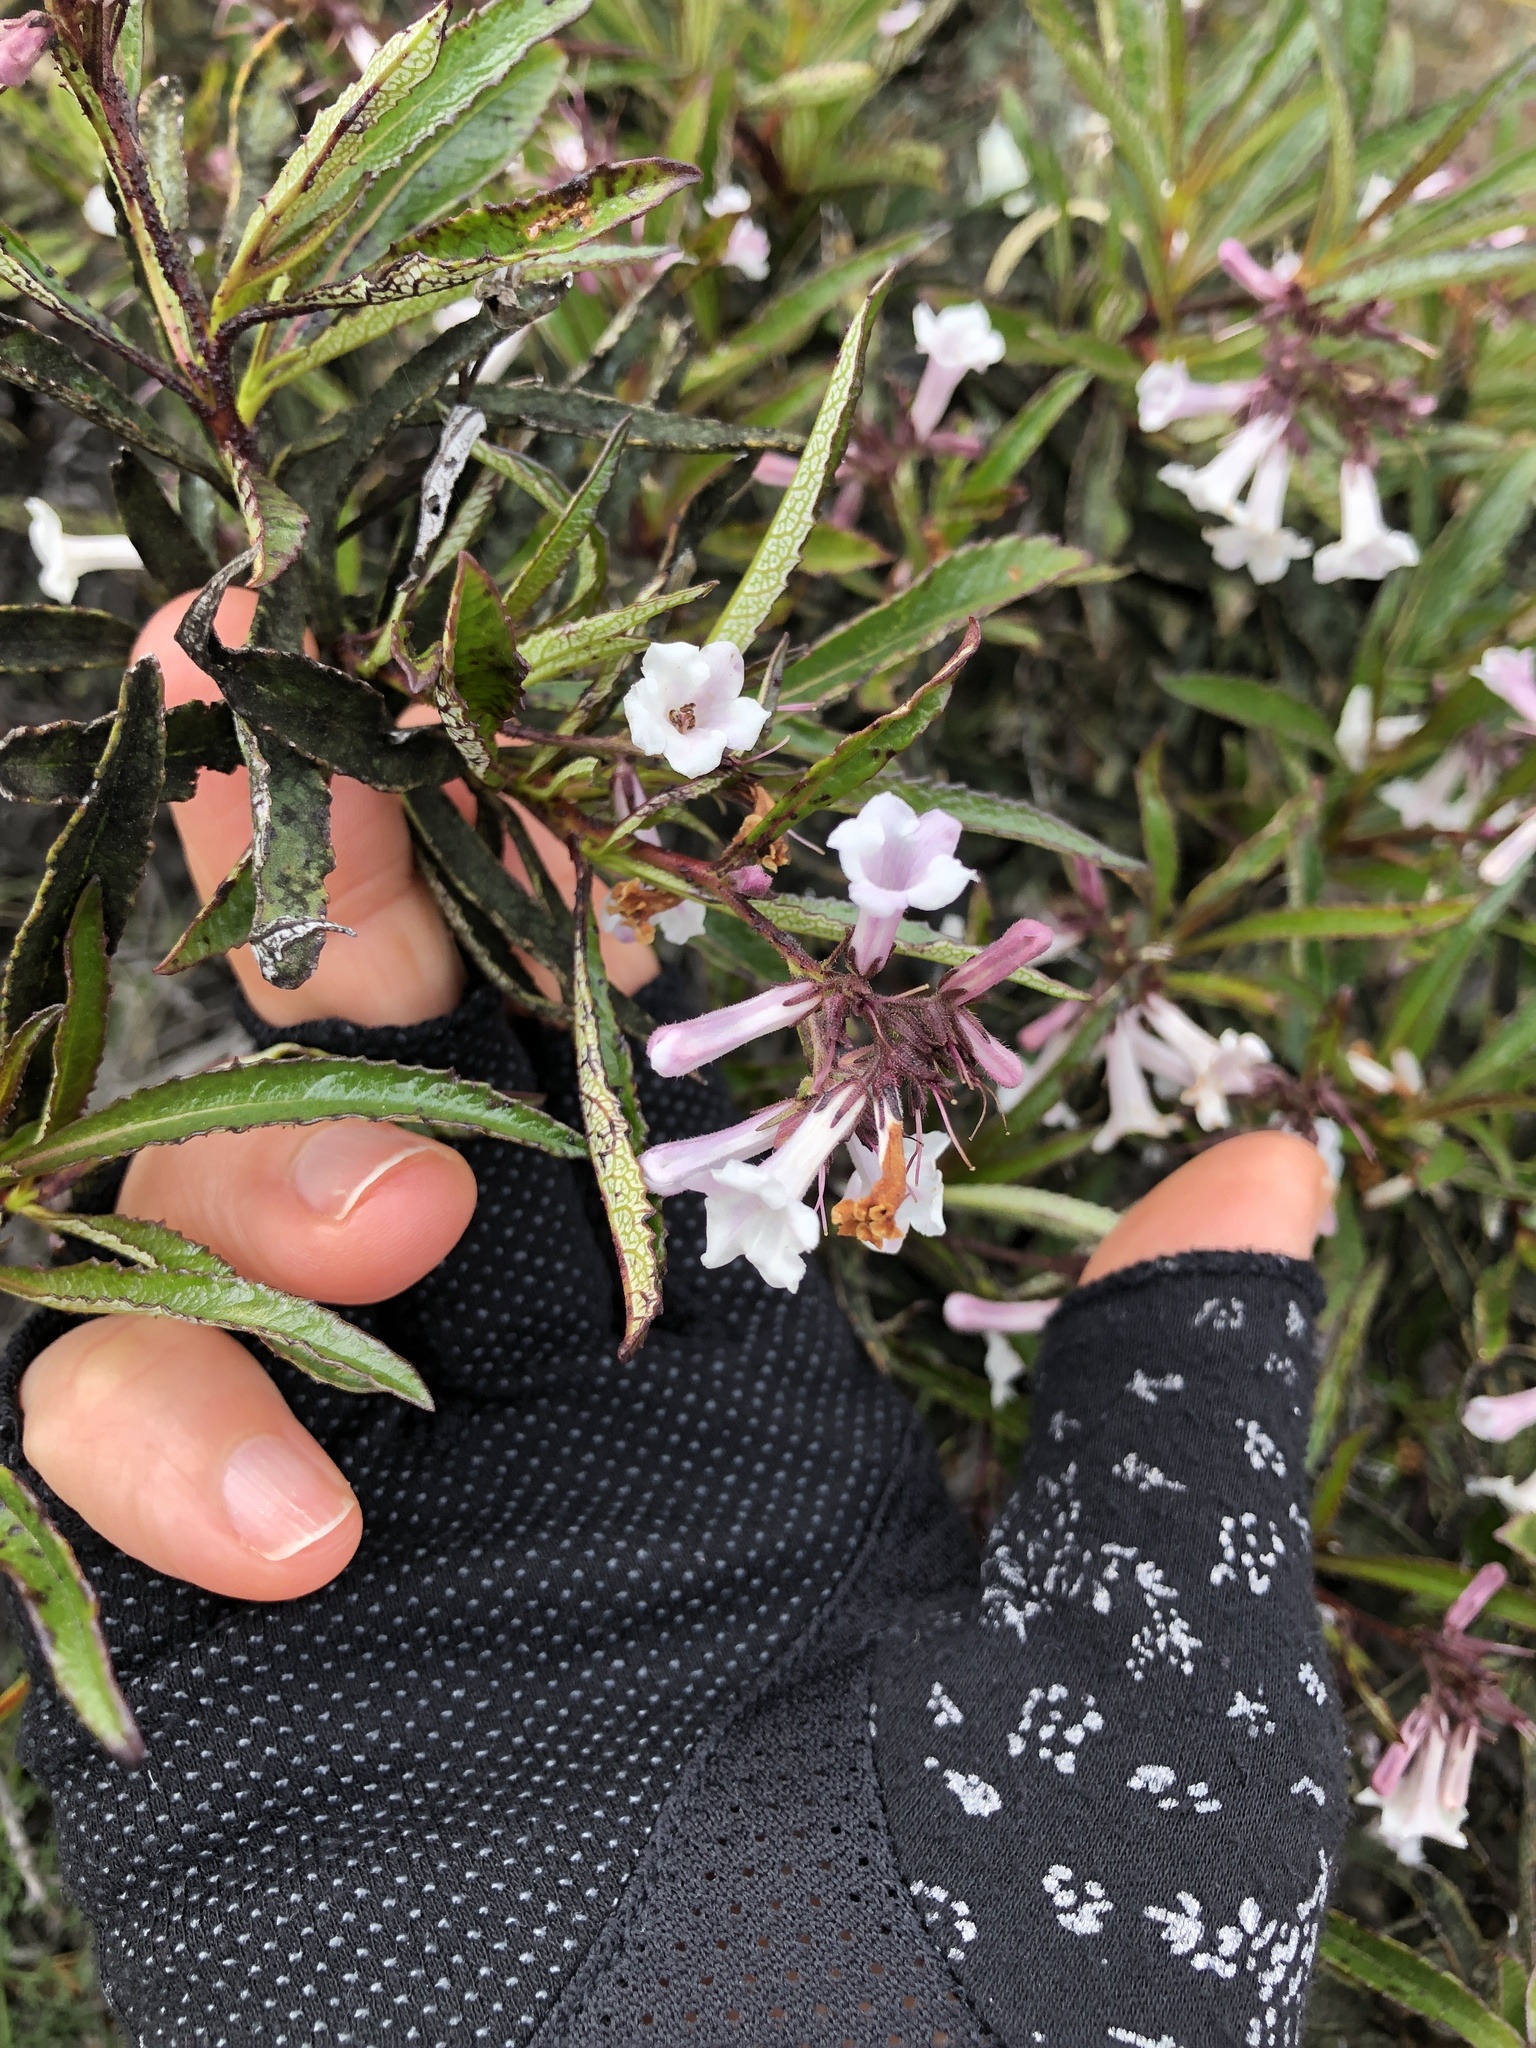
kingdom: Plantae
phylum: Tracheophyta
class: Magnoliopsida
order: Boraginales
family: Namaceae
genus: Eriodictyon
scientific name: Eriodictyon californicum
